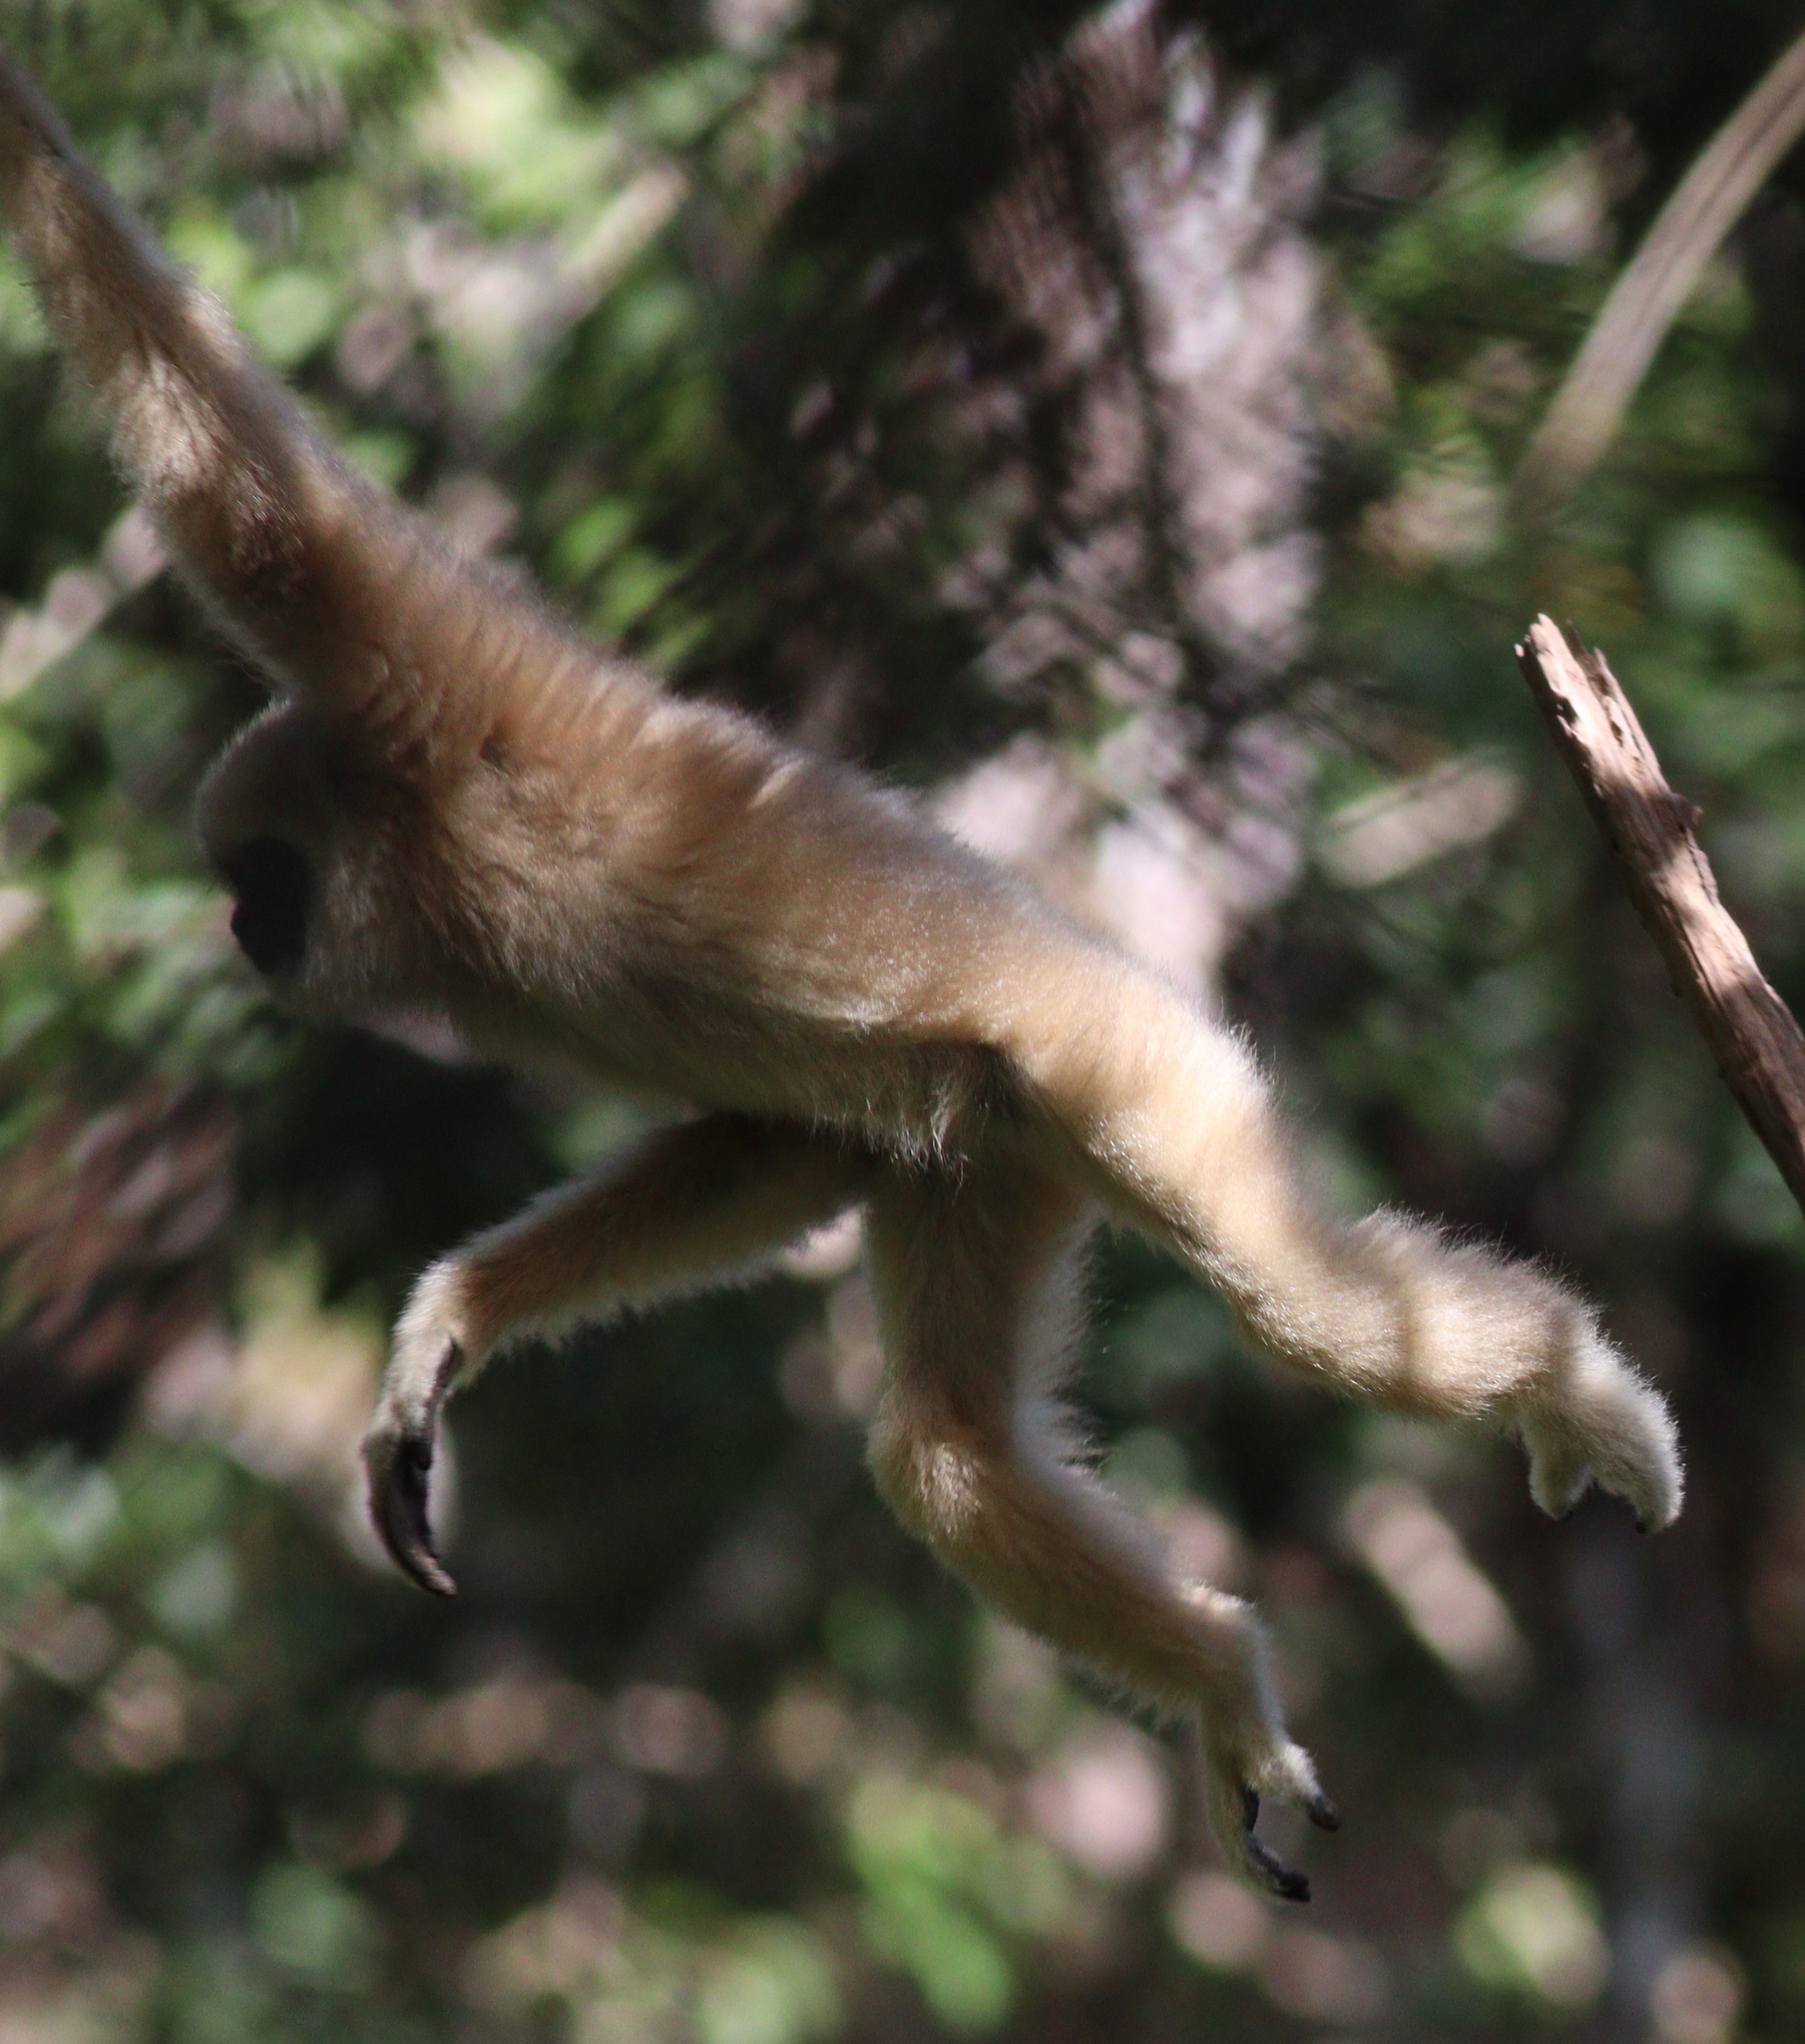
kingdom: Animalia
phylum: Chordata
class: Mammalia
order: Primates
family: Hylobatidae
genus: Hylobates
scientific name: Hylobates lar
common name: Lar gibbon
